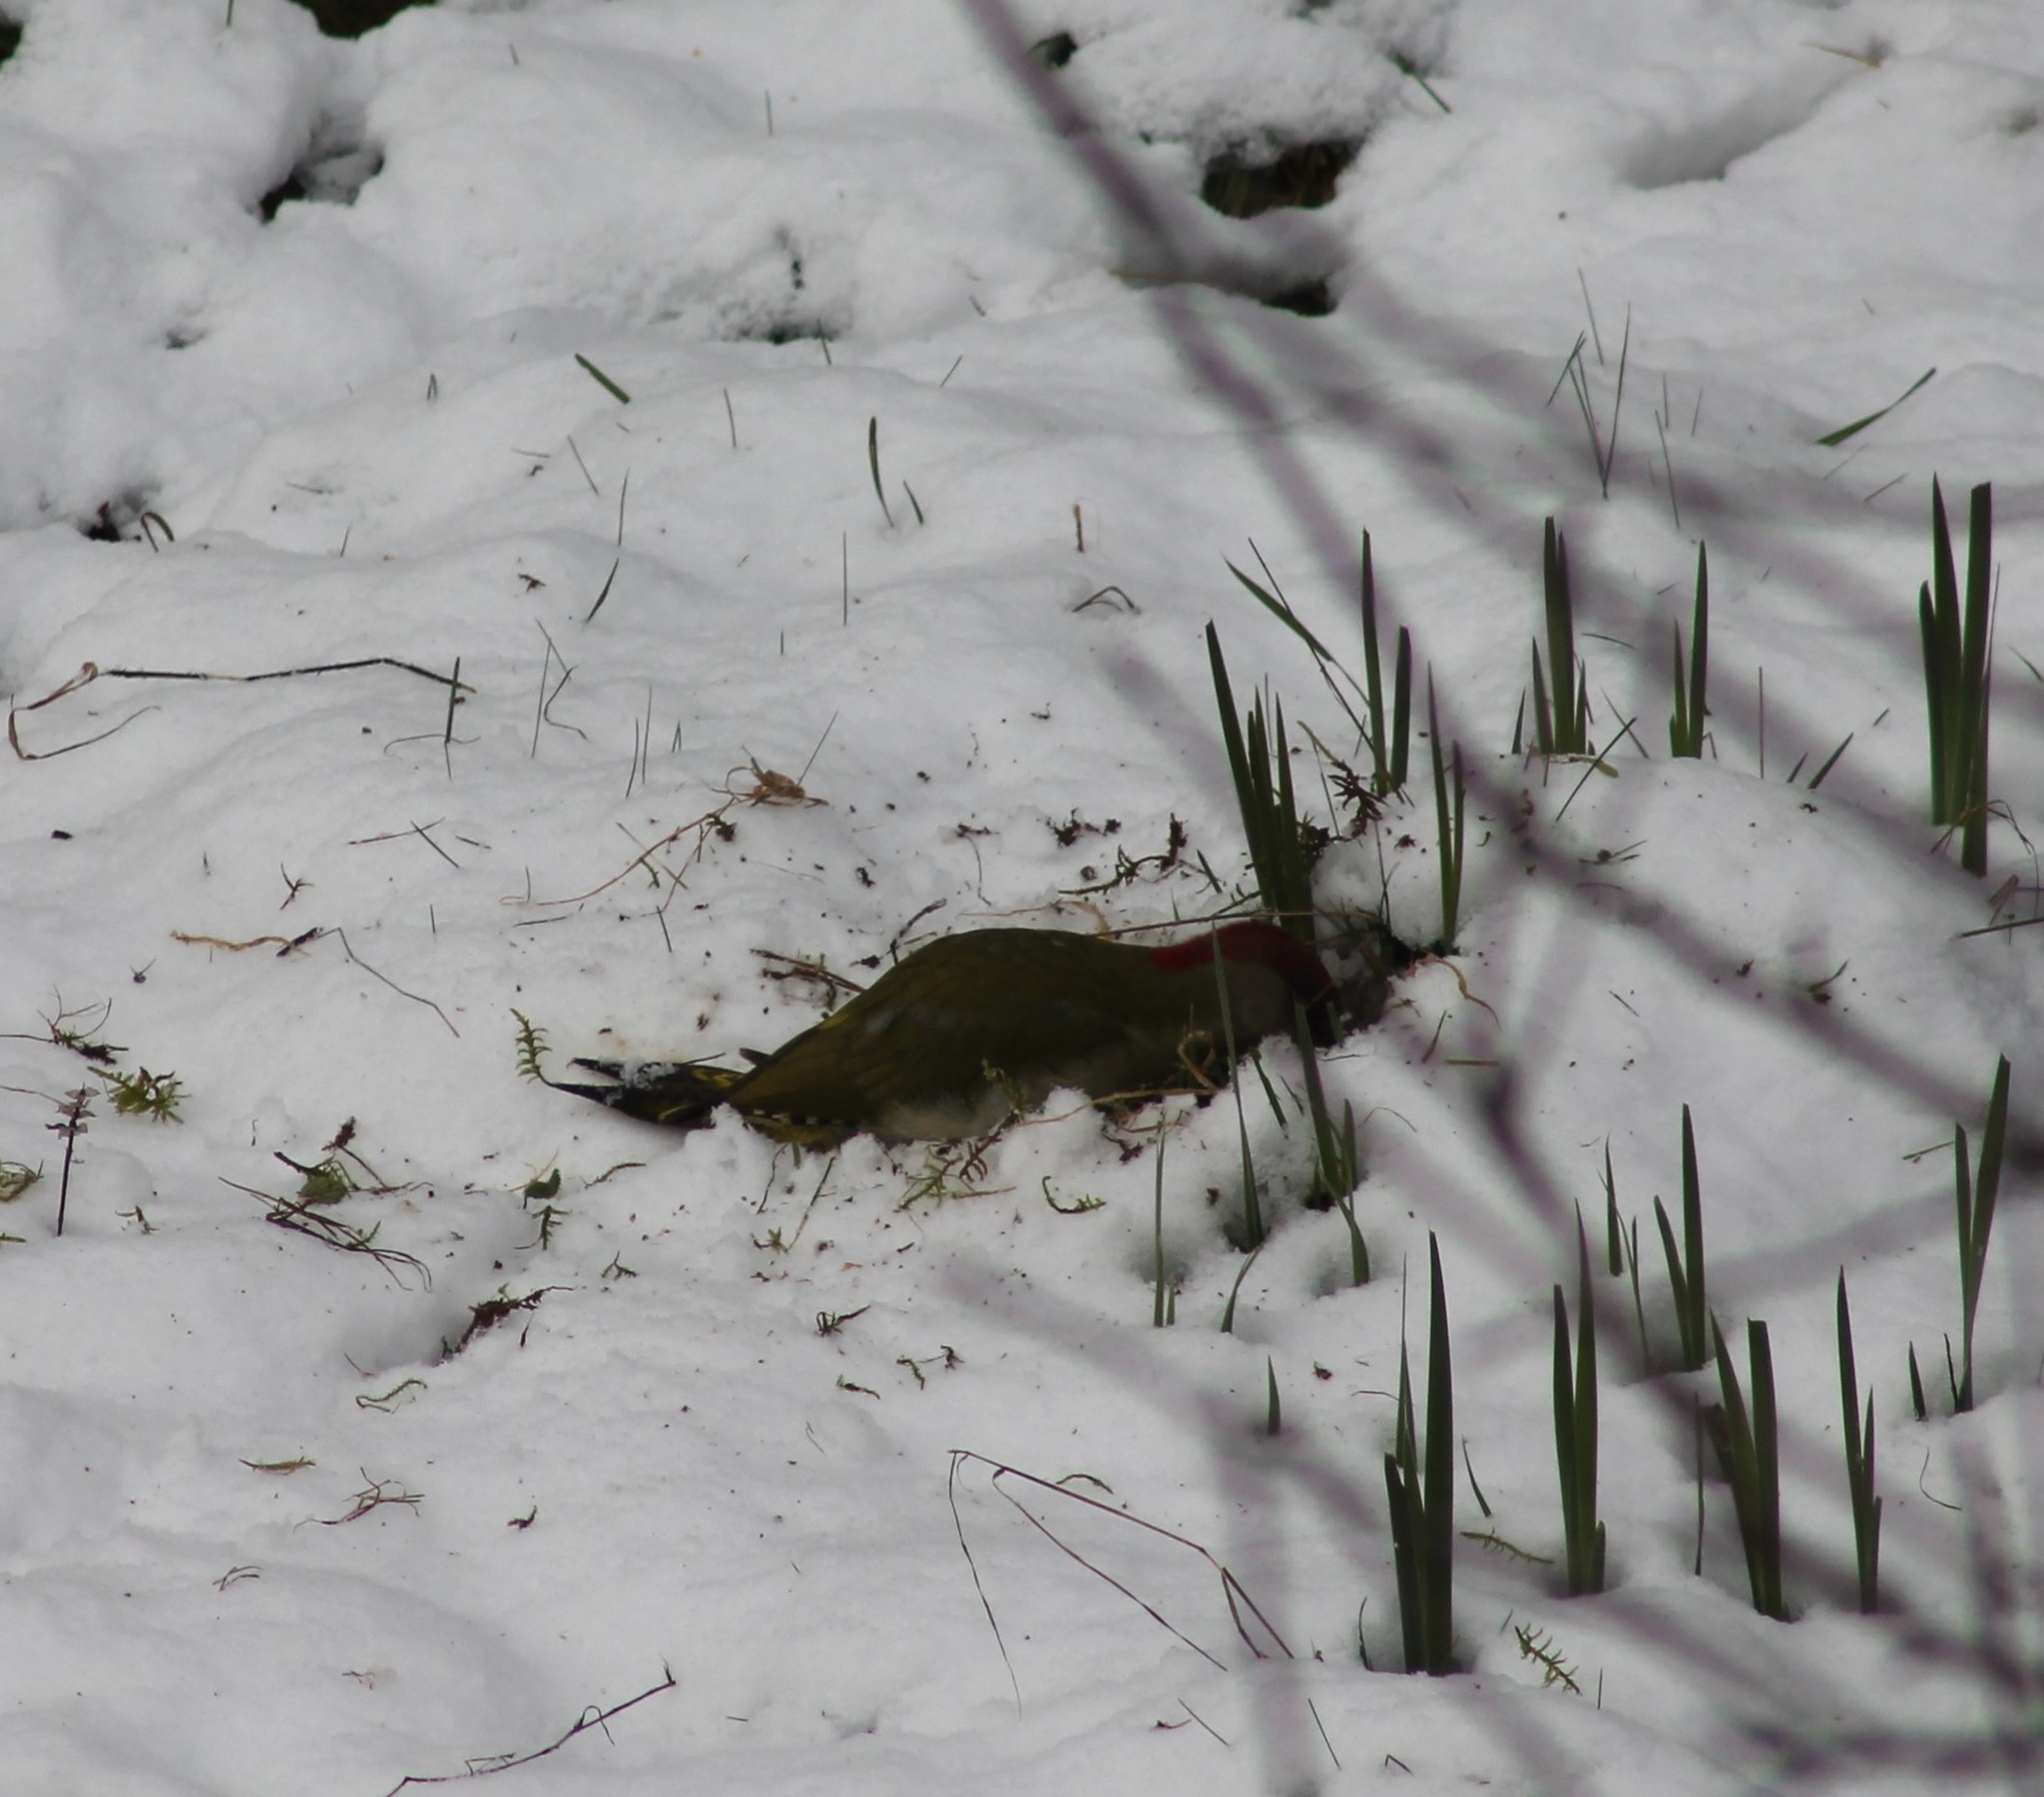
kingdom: Animalia
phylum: Chordata
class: Aves
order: Piciformes
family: Picidae
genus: Picus
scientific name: Picus viridis
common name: European green woodpecker
